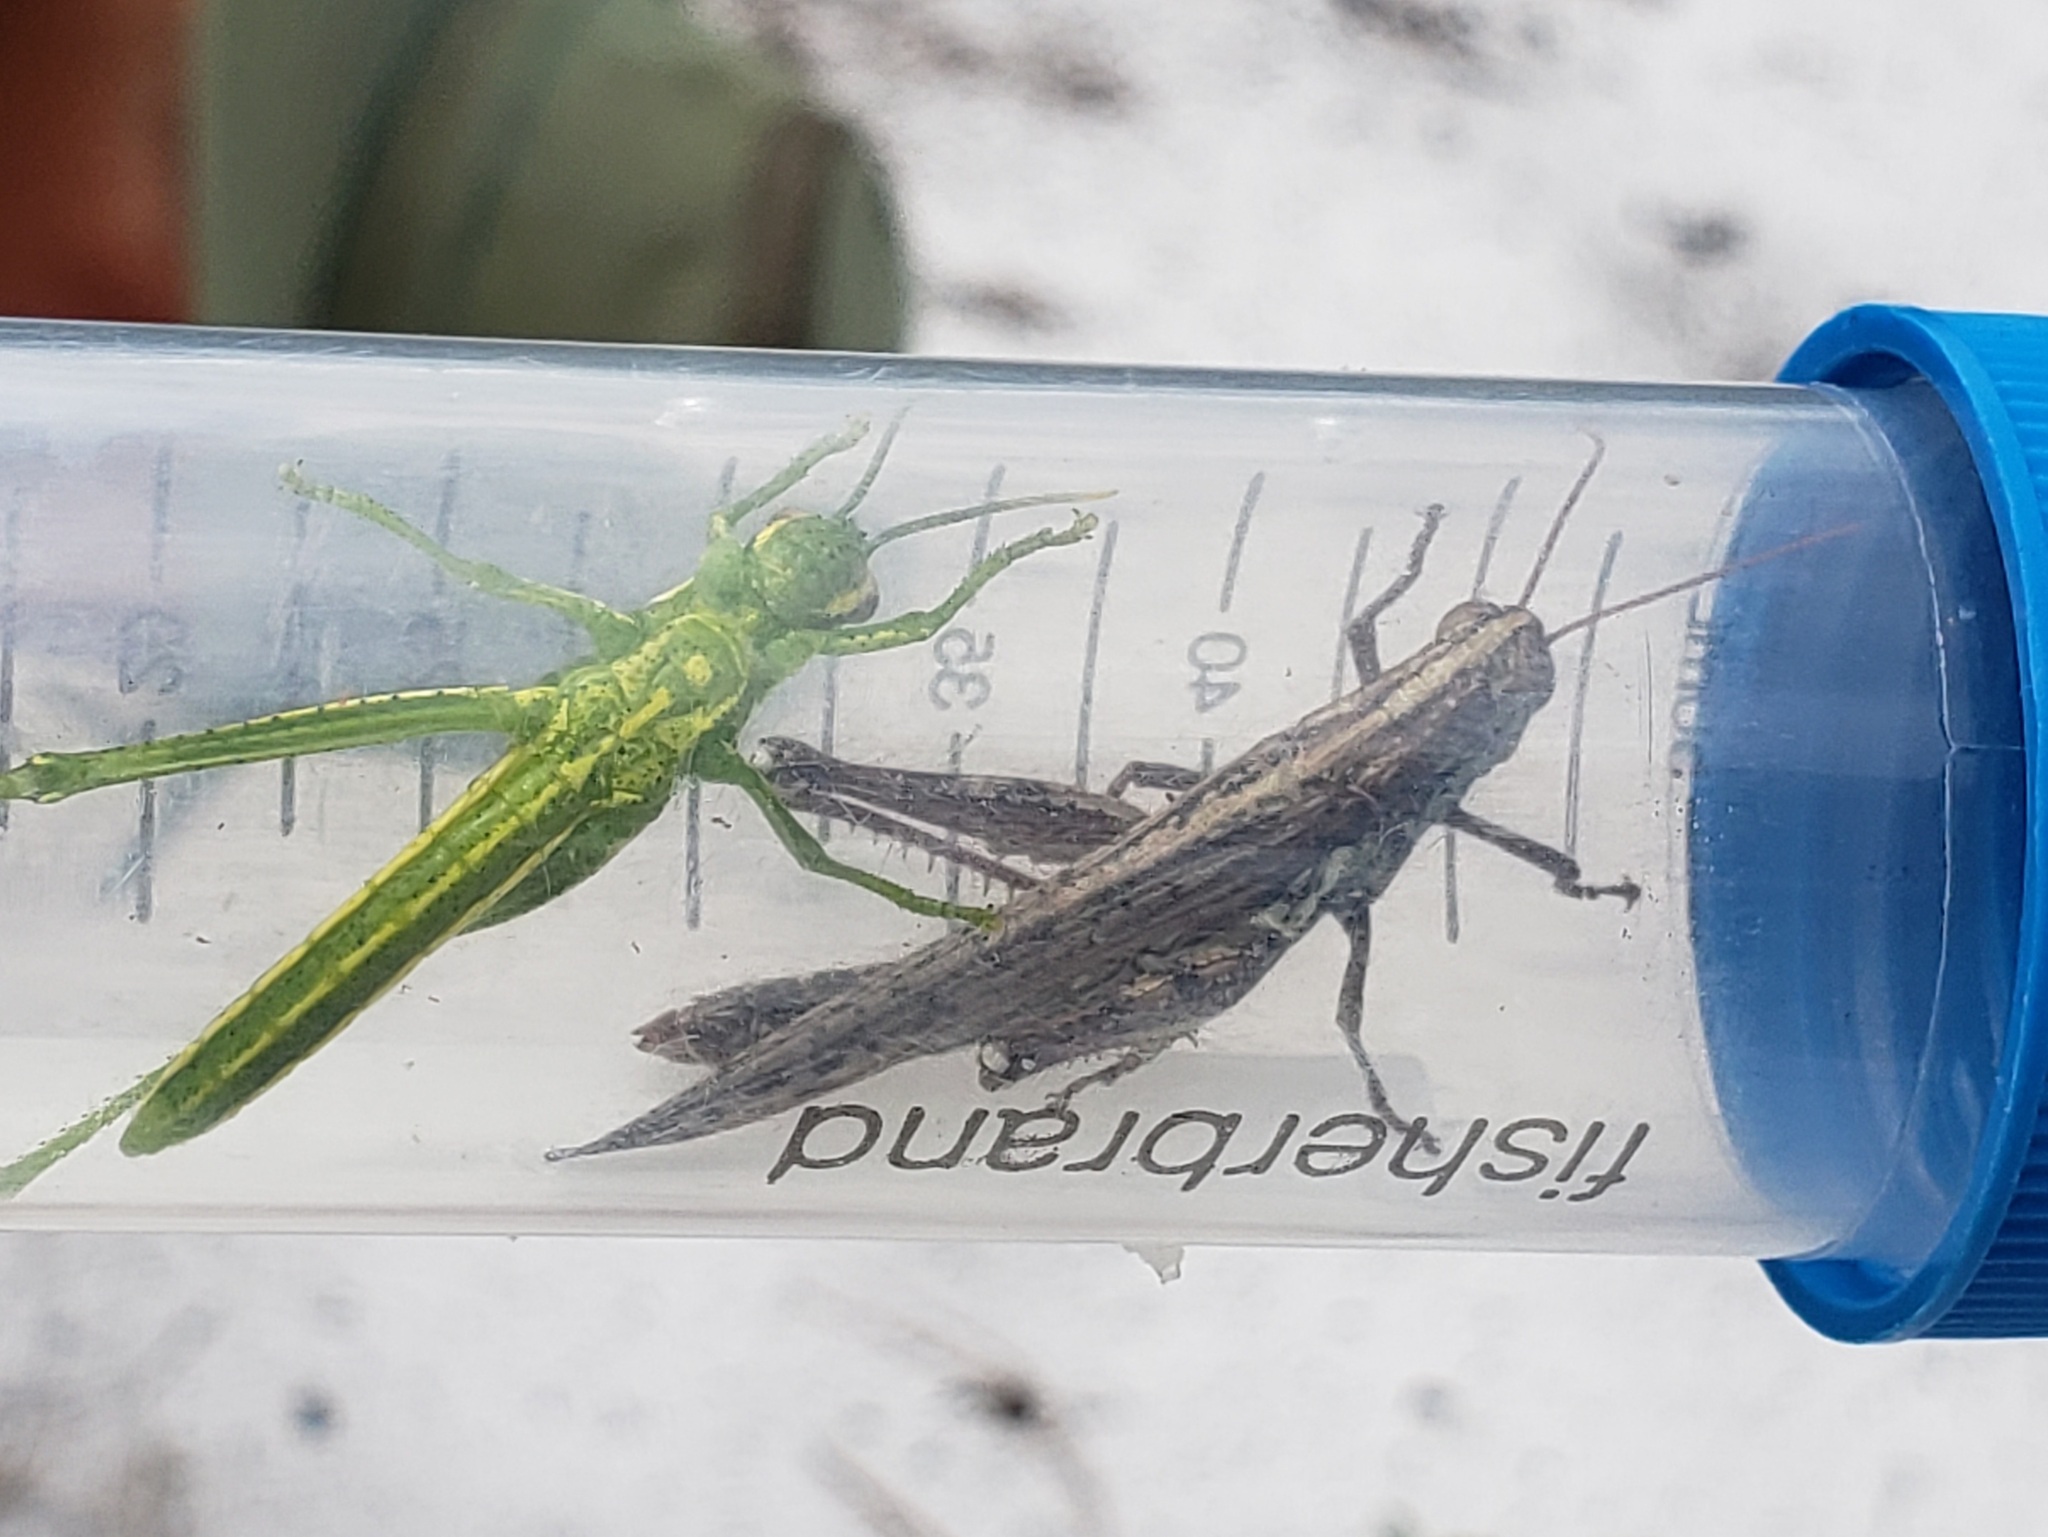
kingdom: Animalia
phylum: Arthropoda
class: Insecta
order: Orthoptera
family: Acrididae
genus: Schistocerca
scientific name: Schistocerca ceratiola
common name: Rosemary grasshopper
